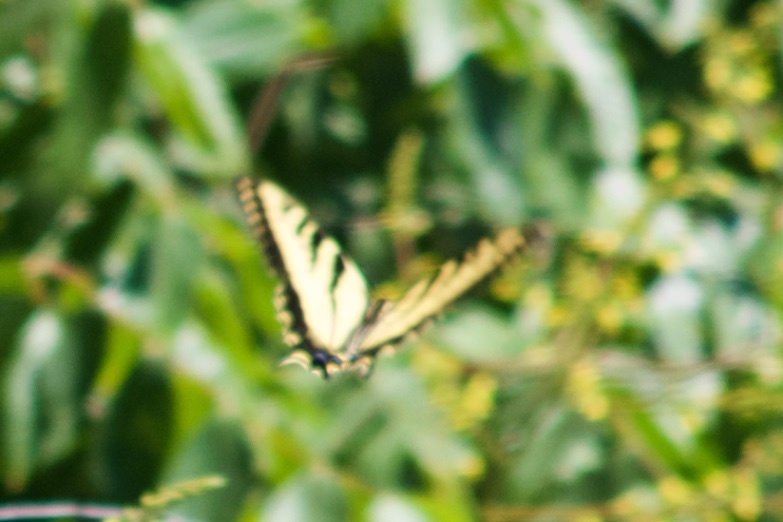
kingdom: Animalia
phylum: Arthropoda
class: Insecta
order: Lepidoptera
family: Papilionidae
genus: Papilio
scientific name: Papilio rutulus
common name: Western tiger swallowtail
